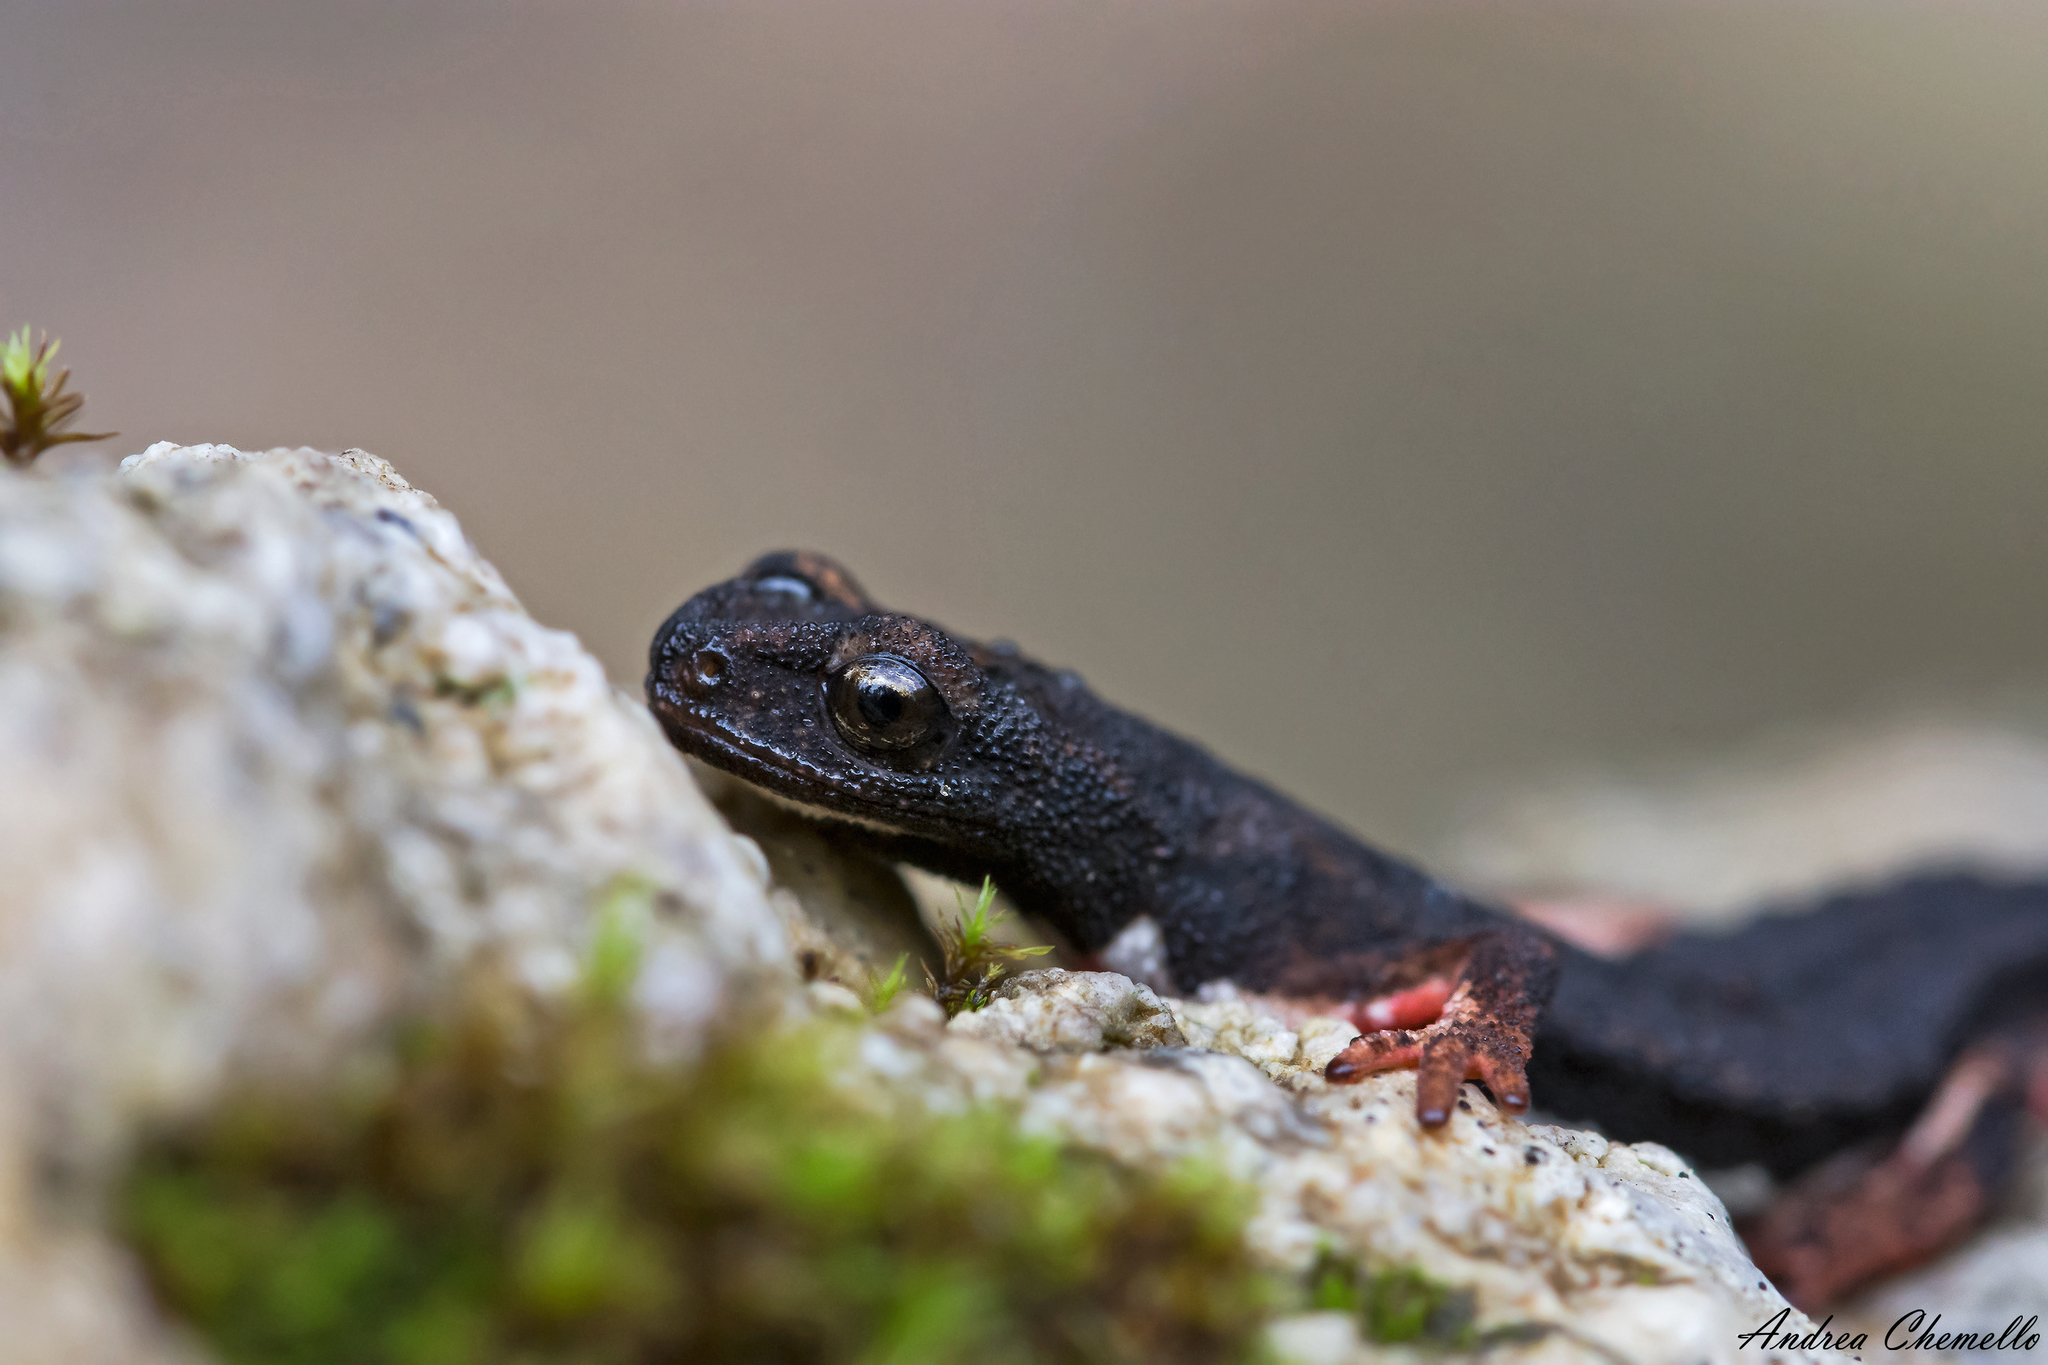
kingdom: Animalia
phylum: Chordata
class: Amphibia
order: Caudata
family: Salamandridae
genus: Salamandrina
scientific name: Salamandrina perspicillata
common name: Northern spectacled salamander
